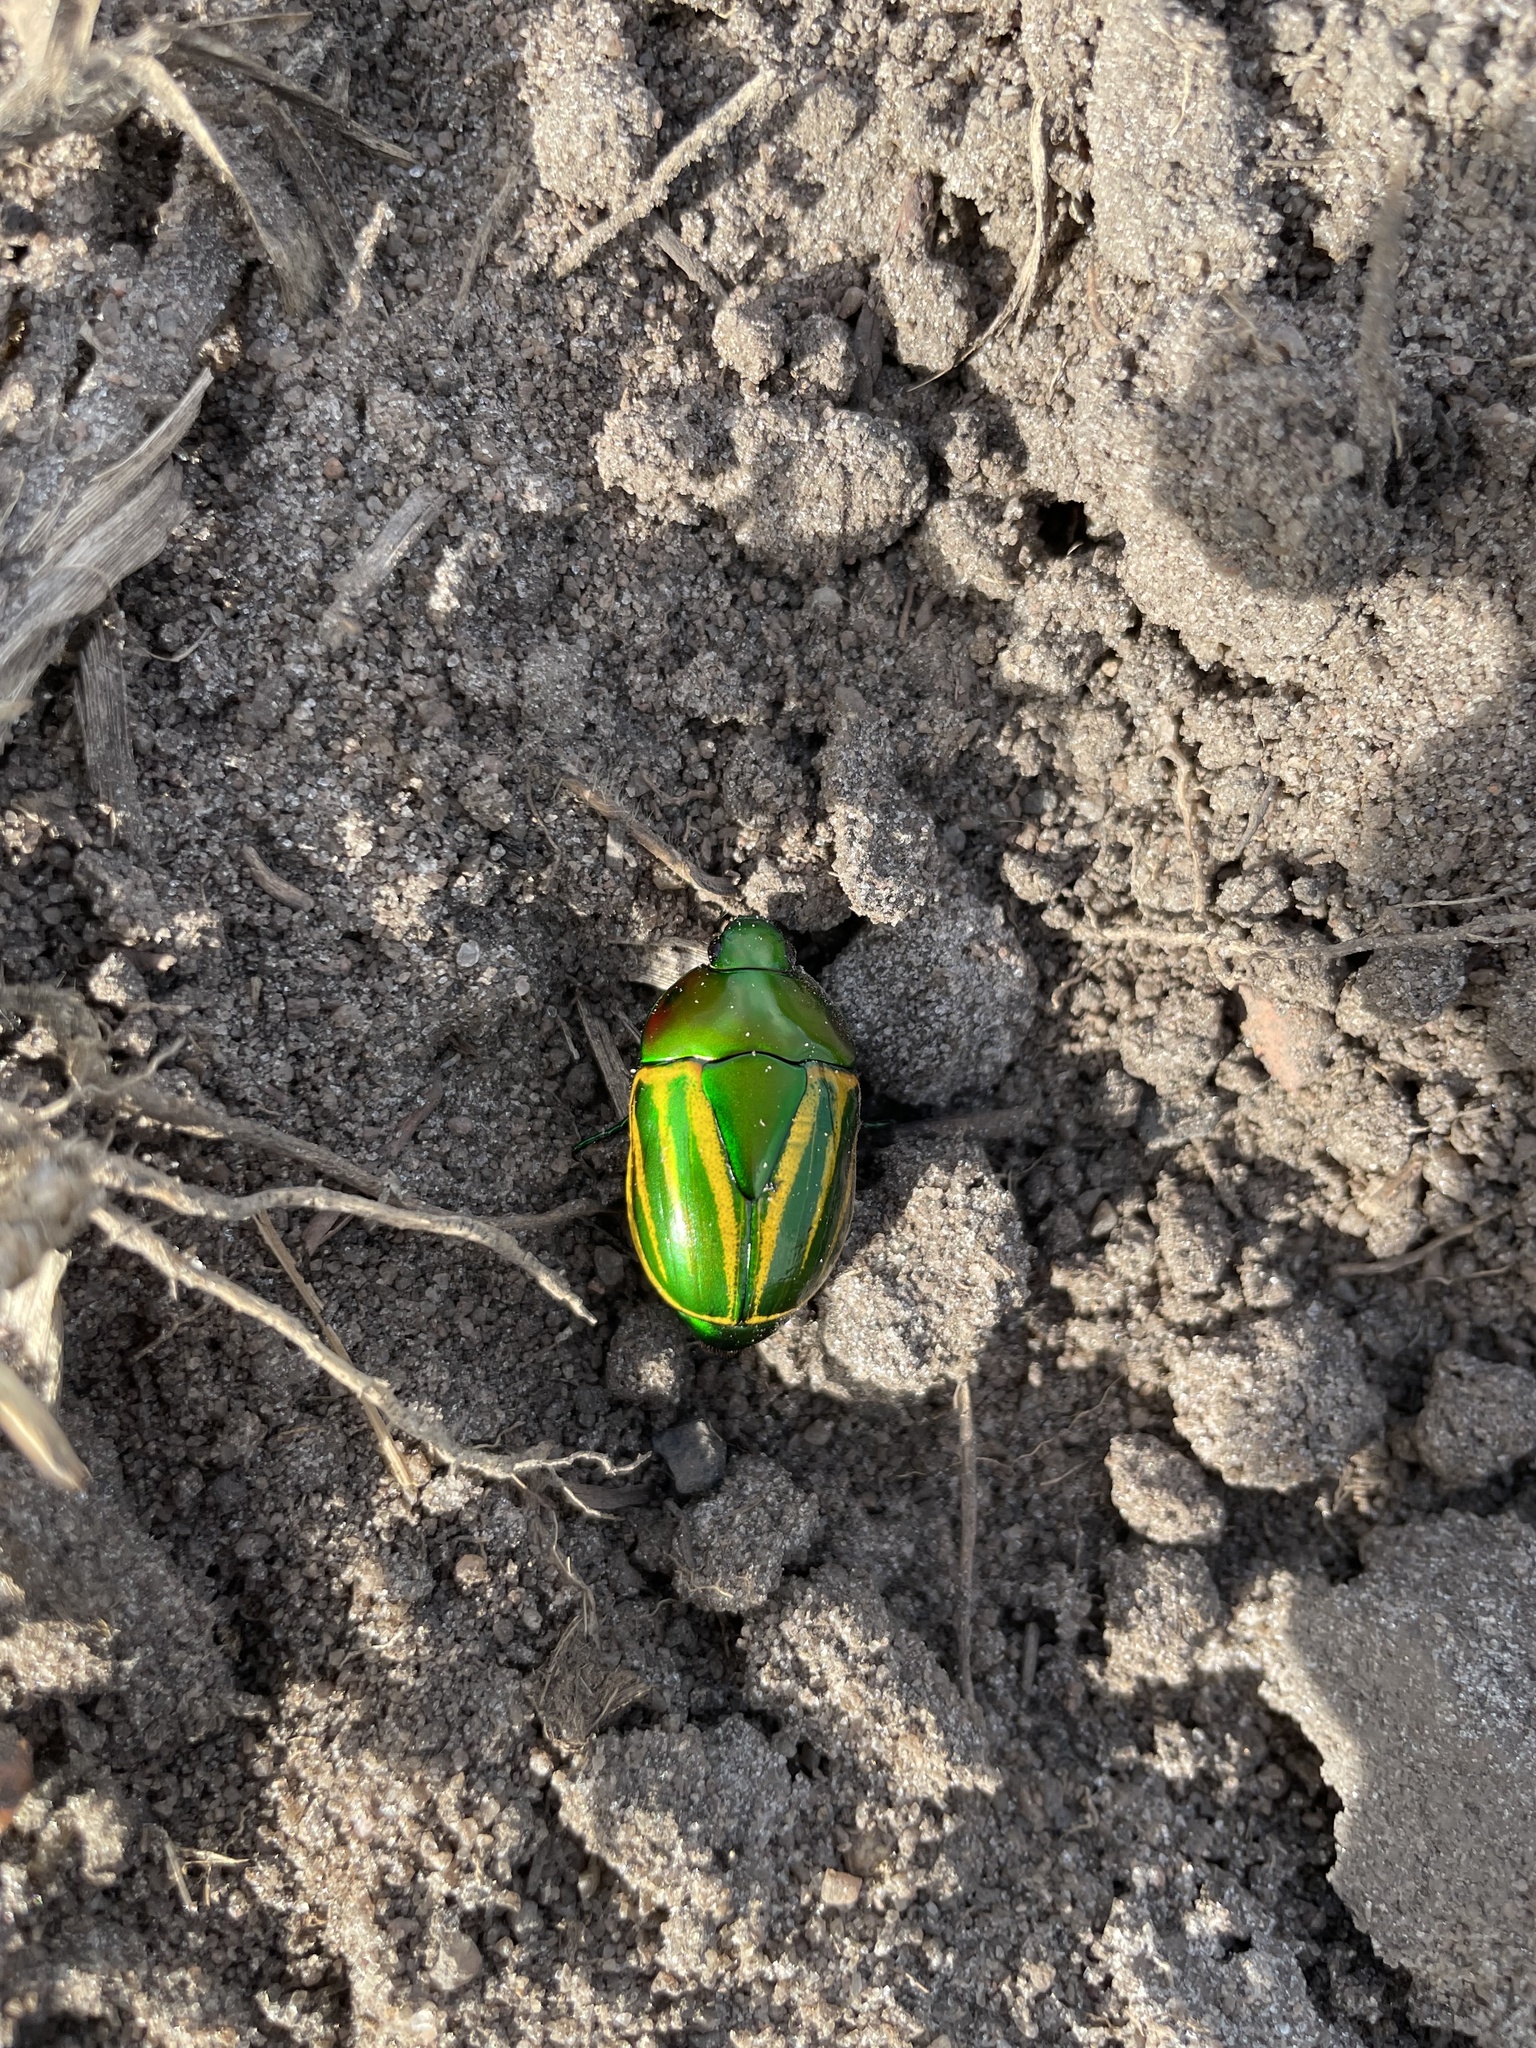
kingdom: Animalia
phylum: Arthropoda
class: Insecta
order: Coleoptera
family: Scarabaeidae
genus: Macraspis
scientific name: Macraspis festiva
